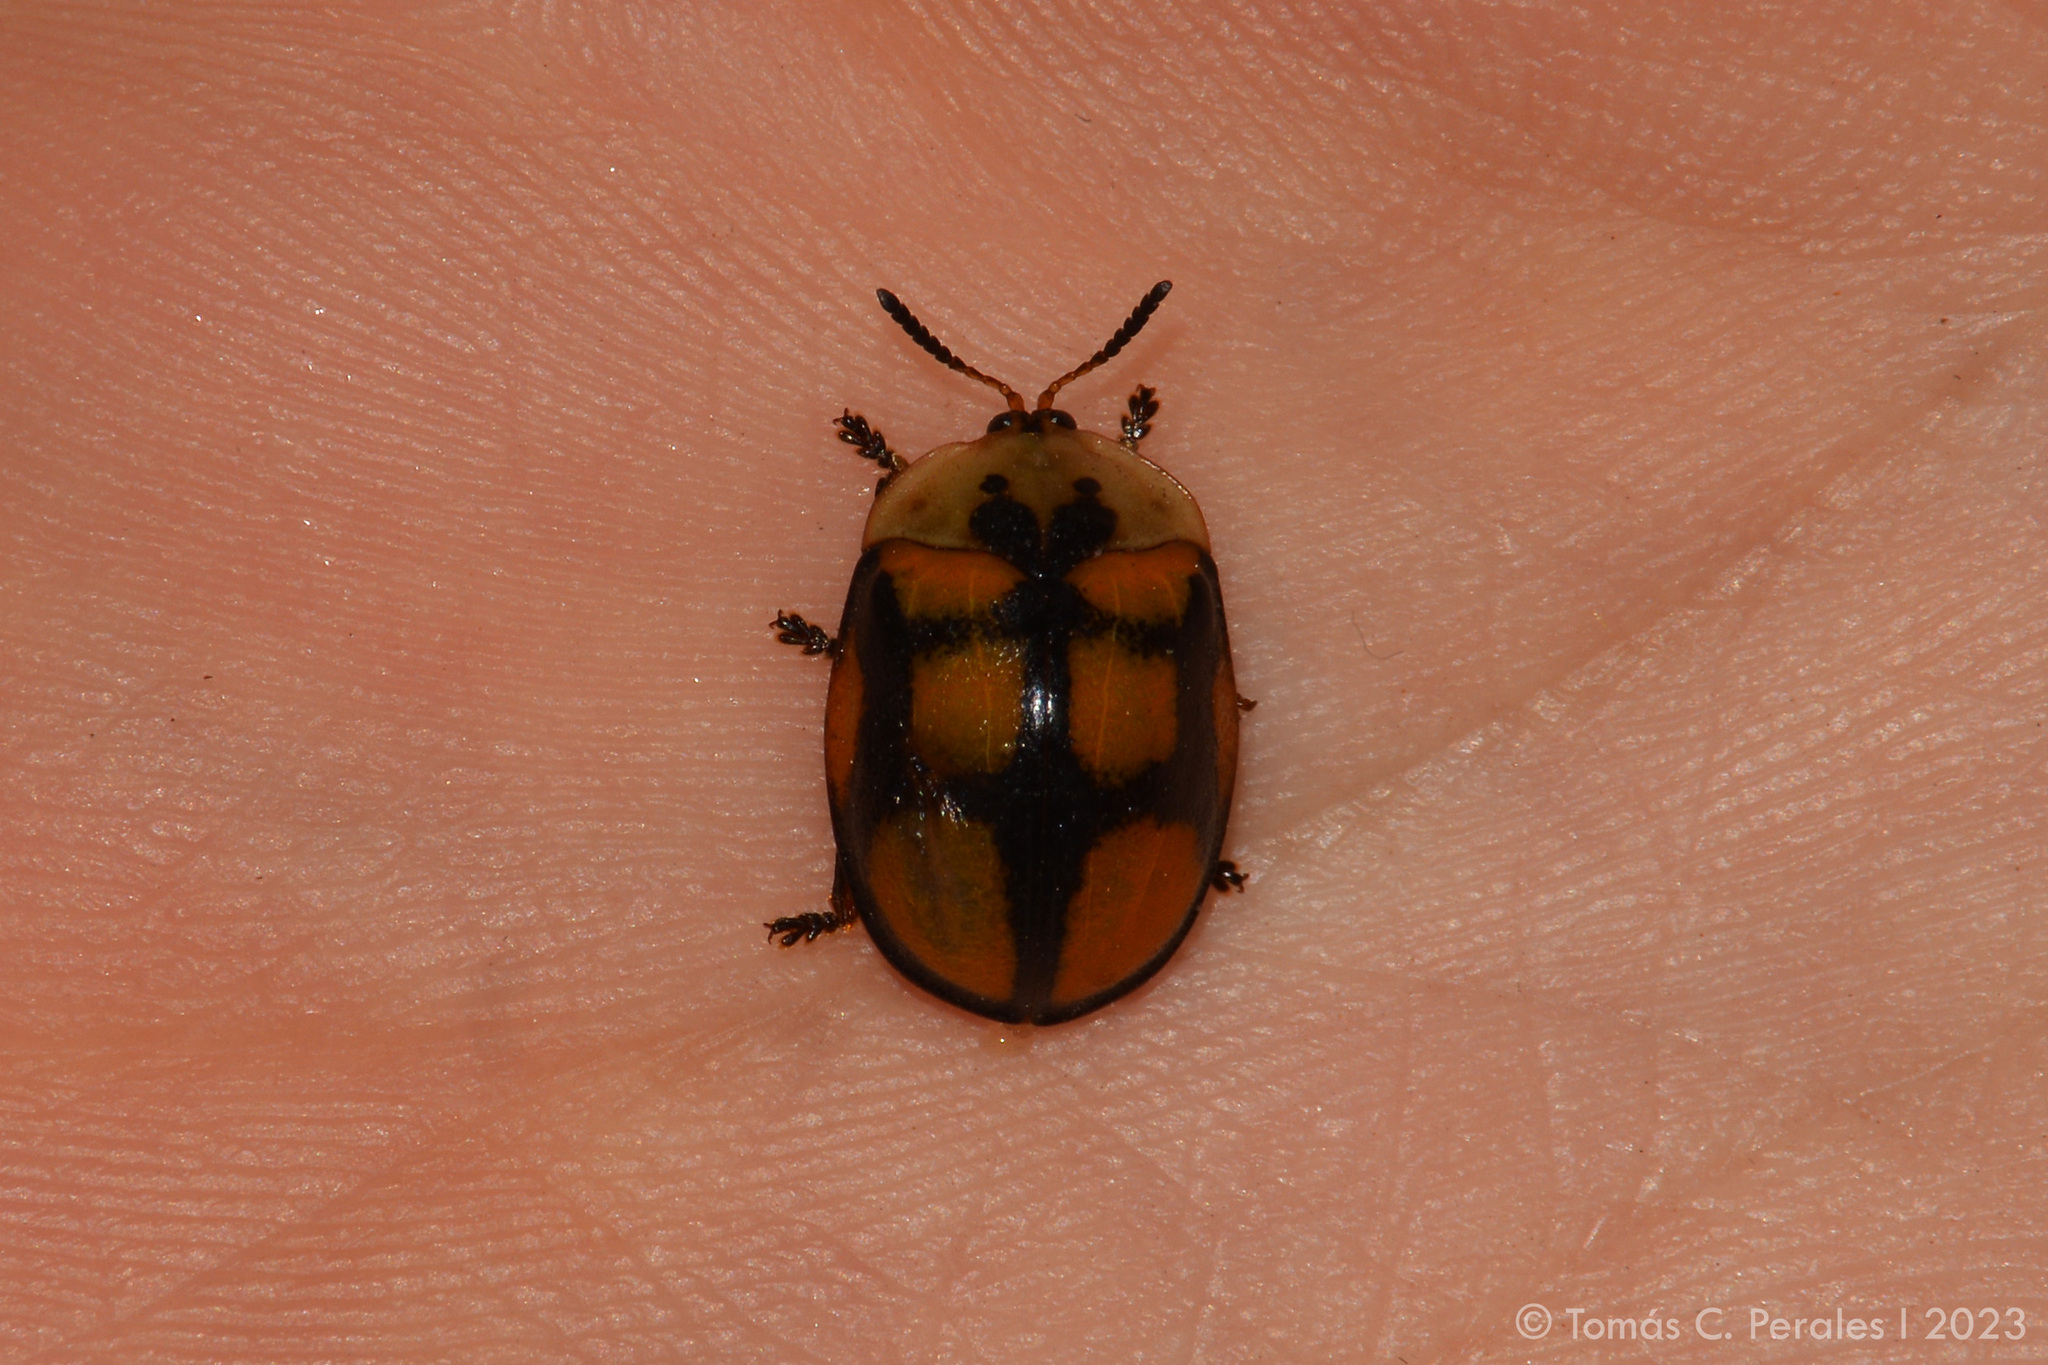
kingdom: Animalia
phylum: Arthropoda
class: Insecta
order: Coleoptera
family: Chrysomelidae
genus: Chelymorpha
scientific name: Chelymorpha areata
